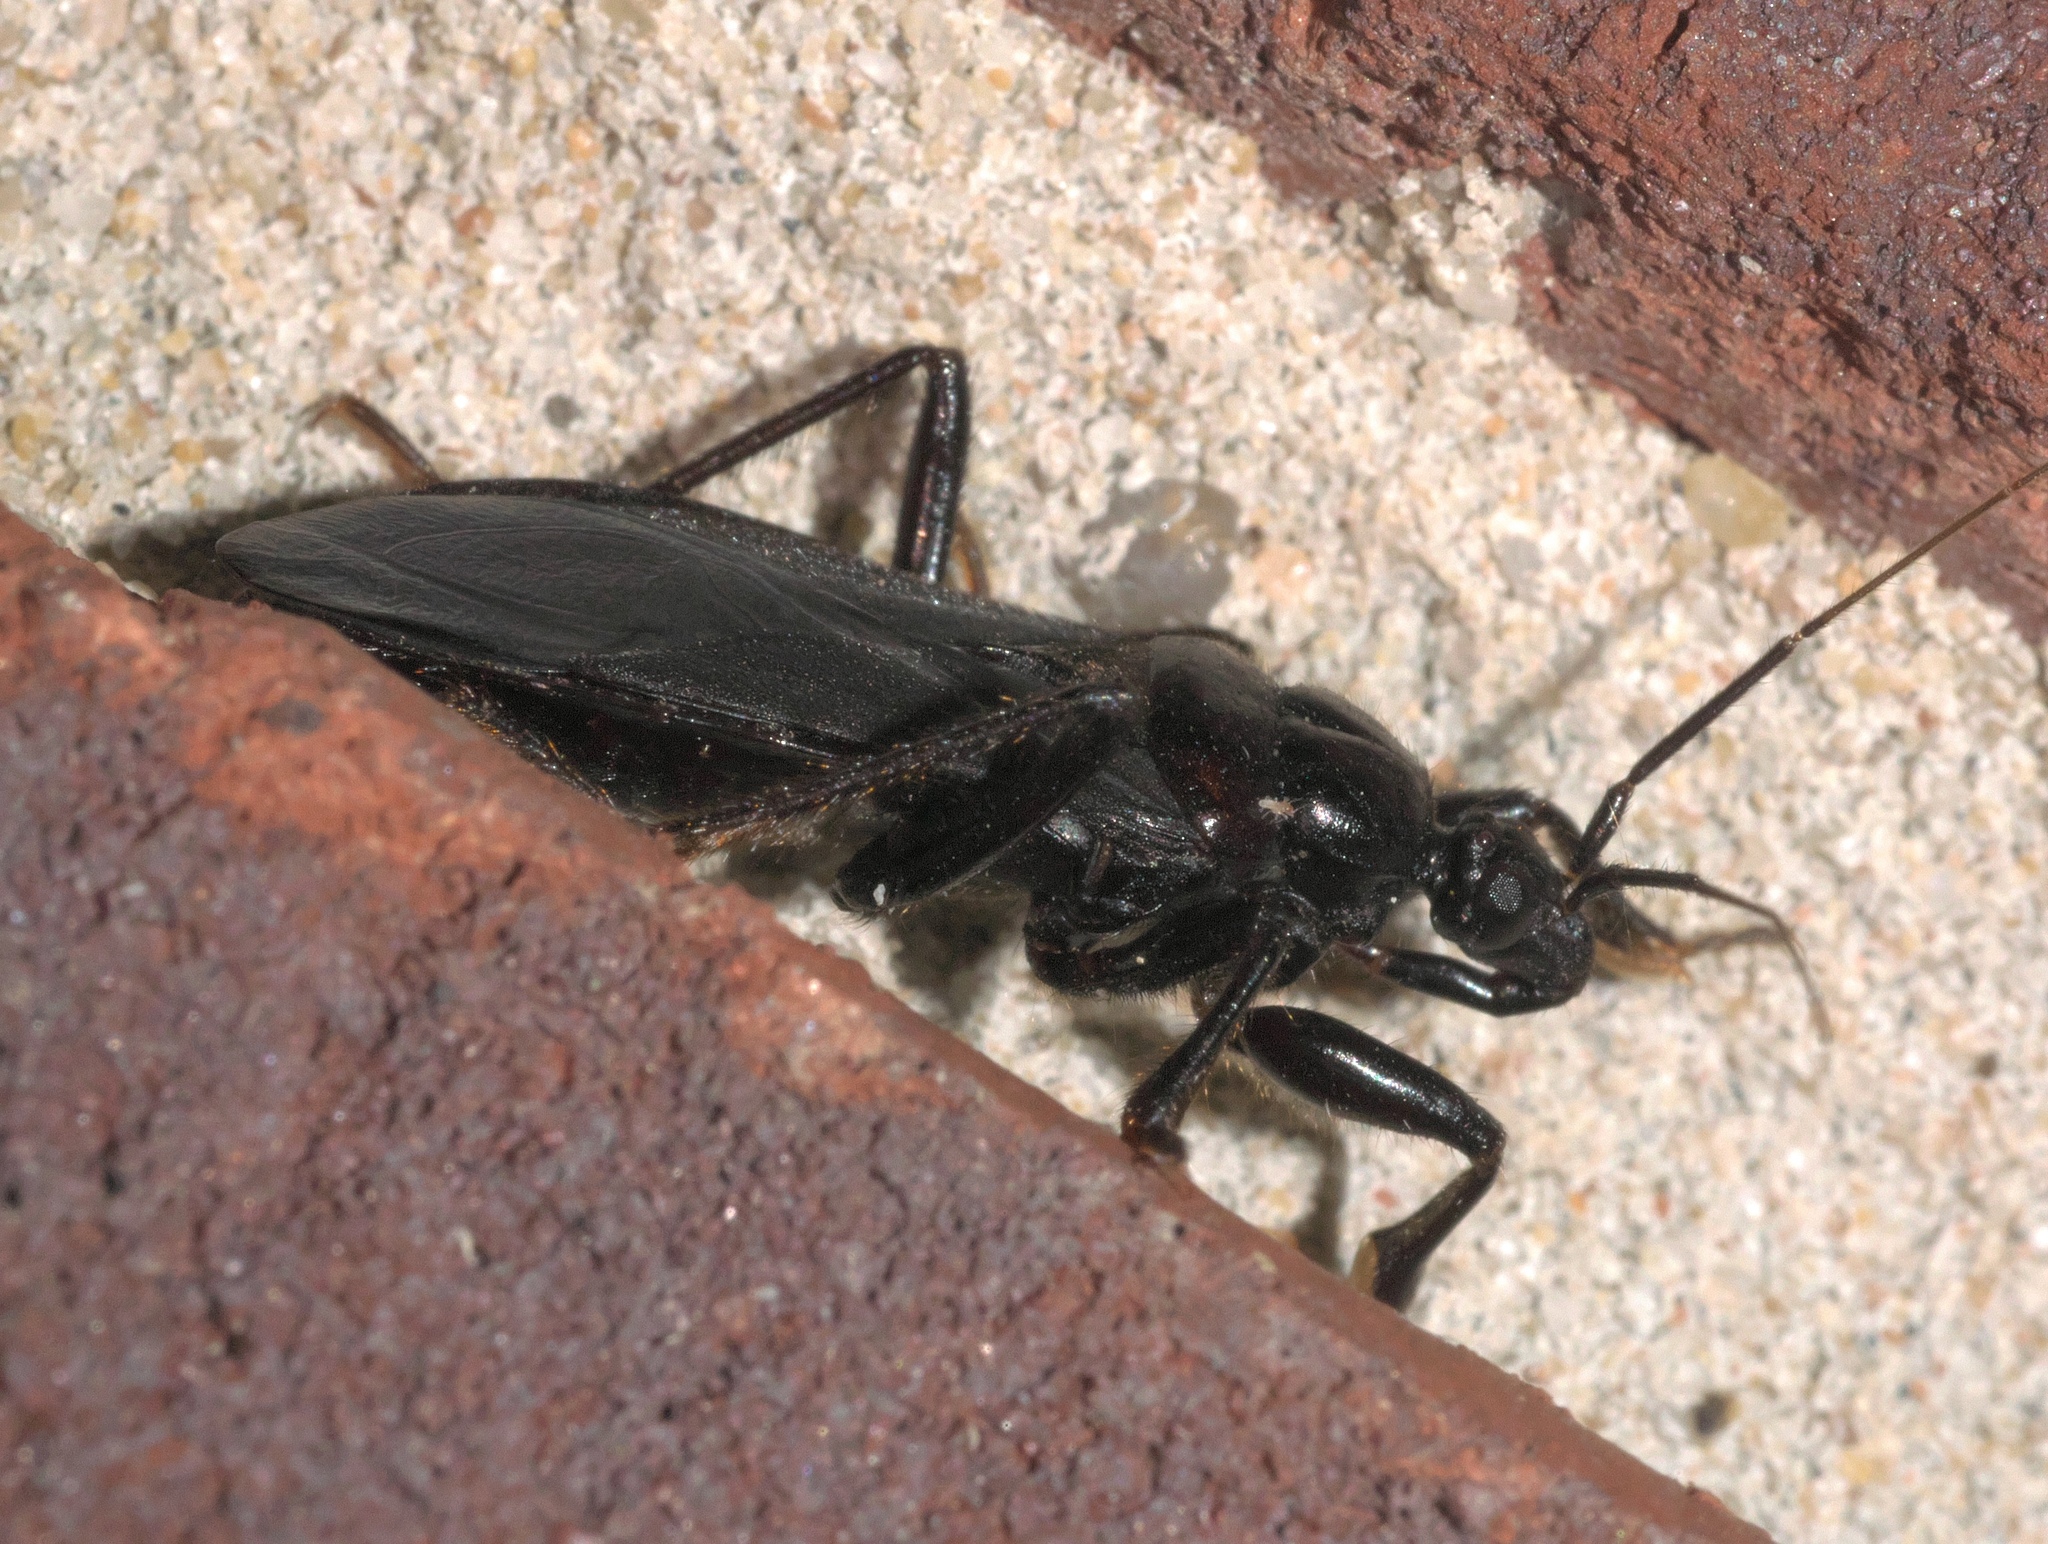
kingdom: Animalia
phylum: Arthropoda
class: Insecta
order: Hemiptera
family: Reduviidae
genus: Melanolestes
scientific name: Melanolestes picipes
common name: Assassin bug
